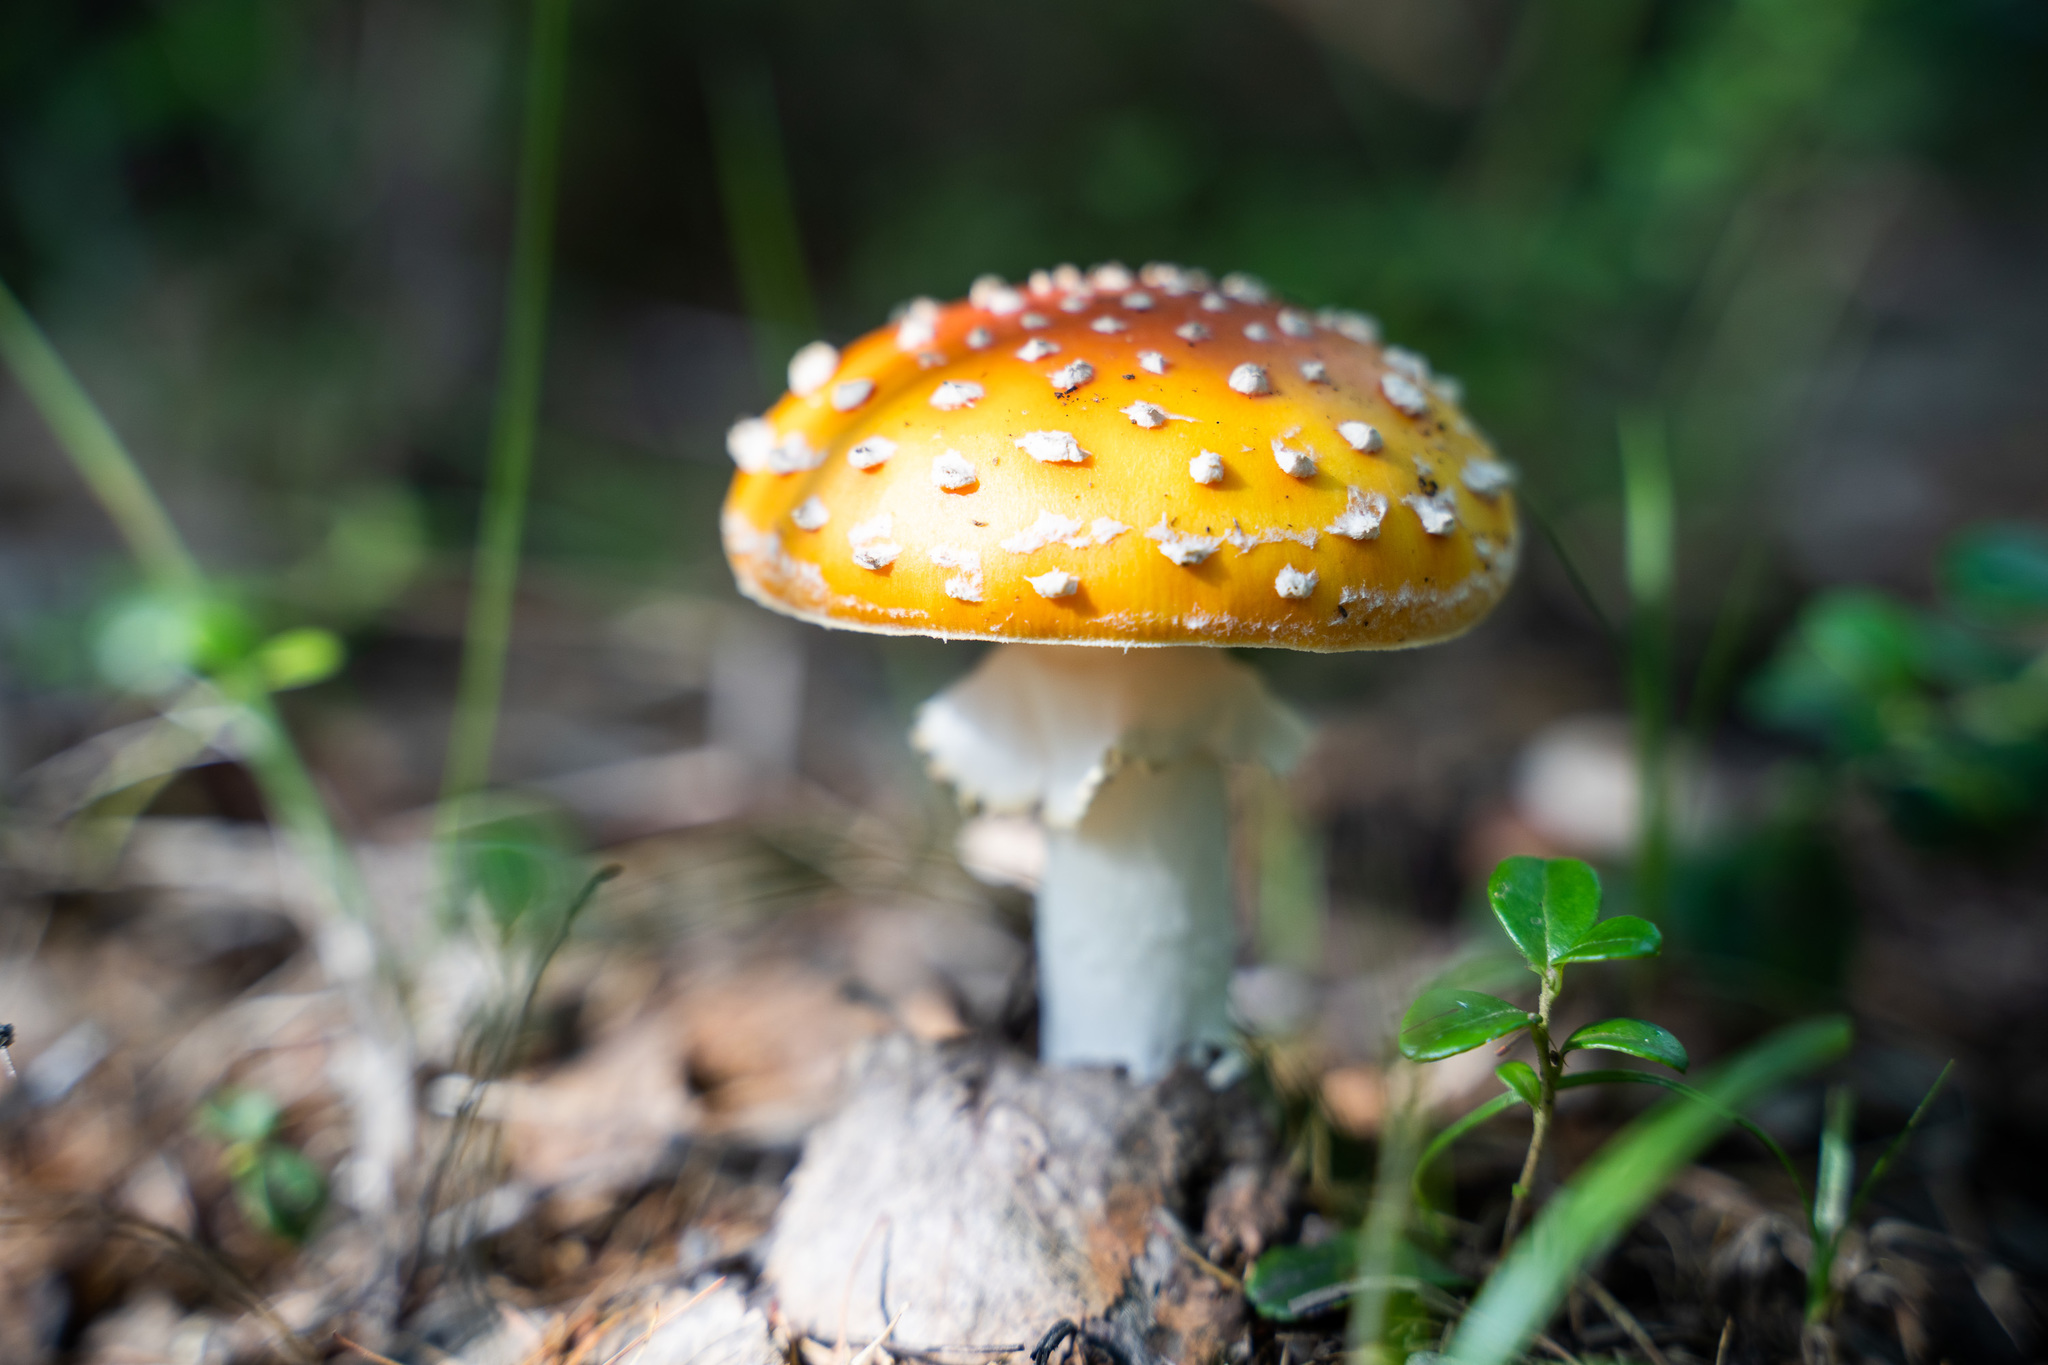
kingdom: Fungi
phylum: Basidiomycota
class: Agaricomycetes
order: Agaricales
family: Amanitaceae
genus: Amanita
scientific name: Amanita muscaria
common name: Fly agaric
